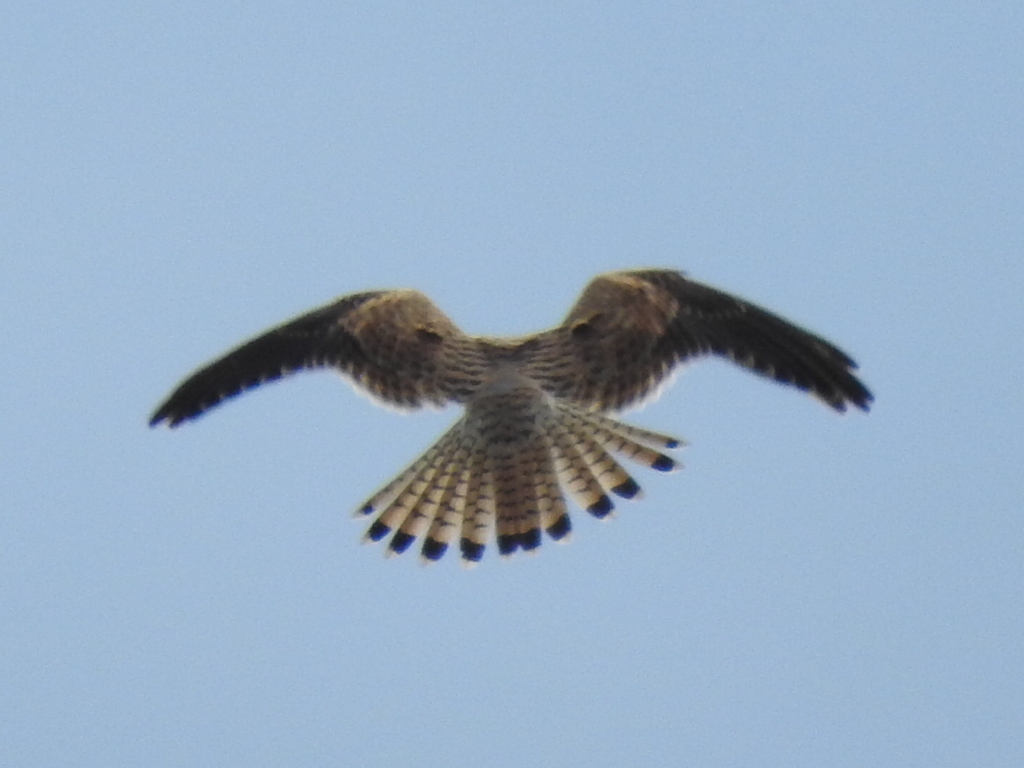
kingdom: Animalia
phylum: Chordata
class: Aves
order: Falconiformes
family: Falconidae
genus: Falco
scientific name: Falco tinnunculus
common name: Common kestrel
